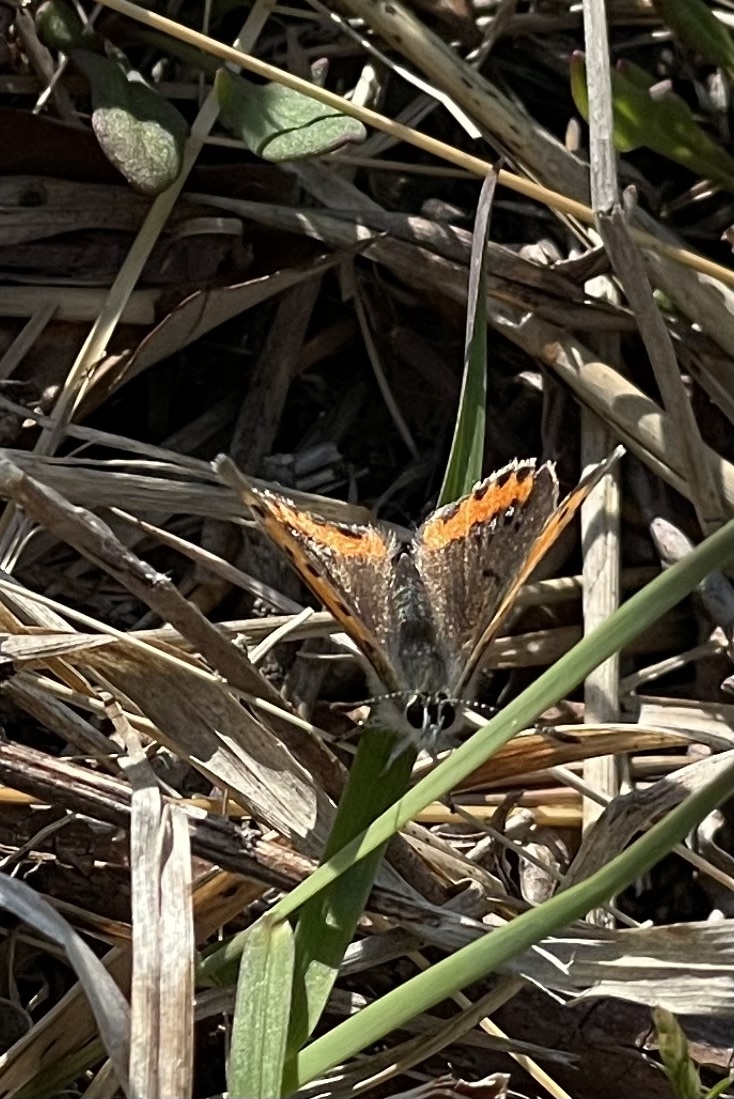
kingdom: Animalia
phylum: Arthropoda
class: Insecta
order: Lepidoptera
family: Lycaenidae
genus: Lycaena
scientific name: Lycaena hypophlaeas
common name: American copper
